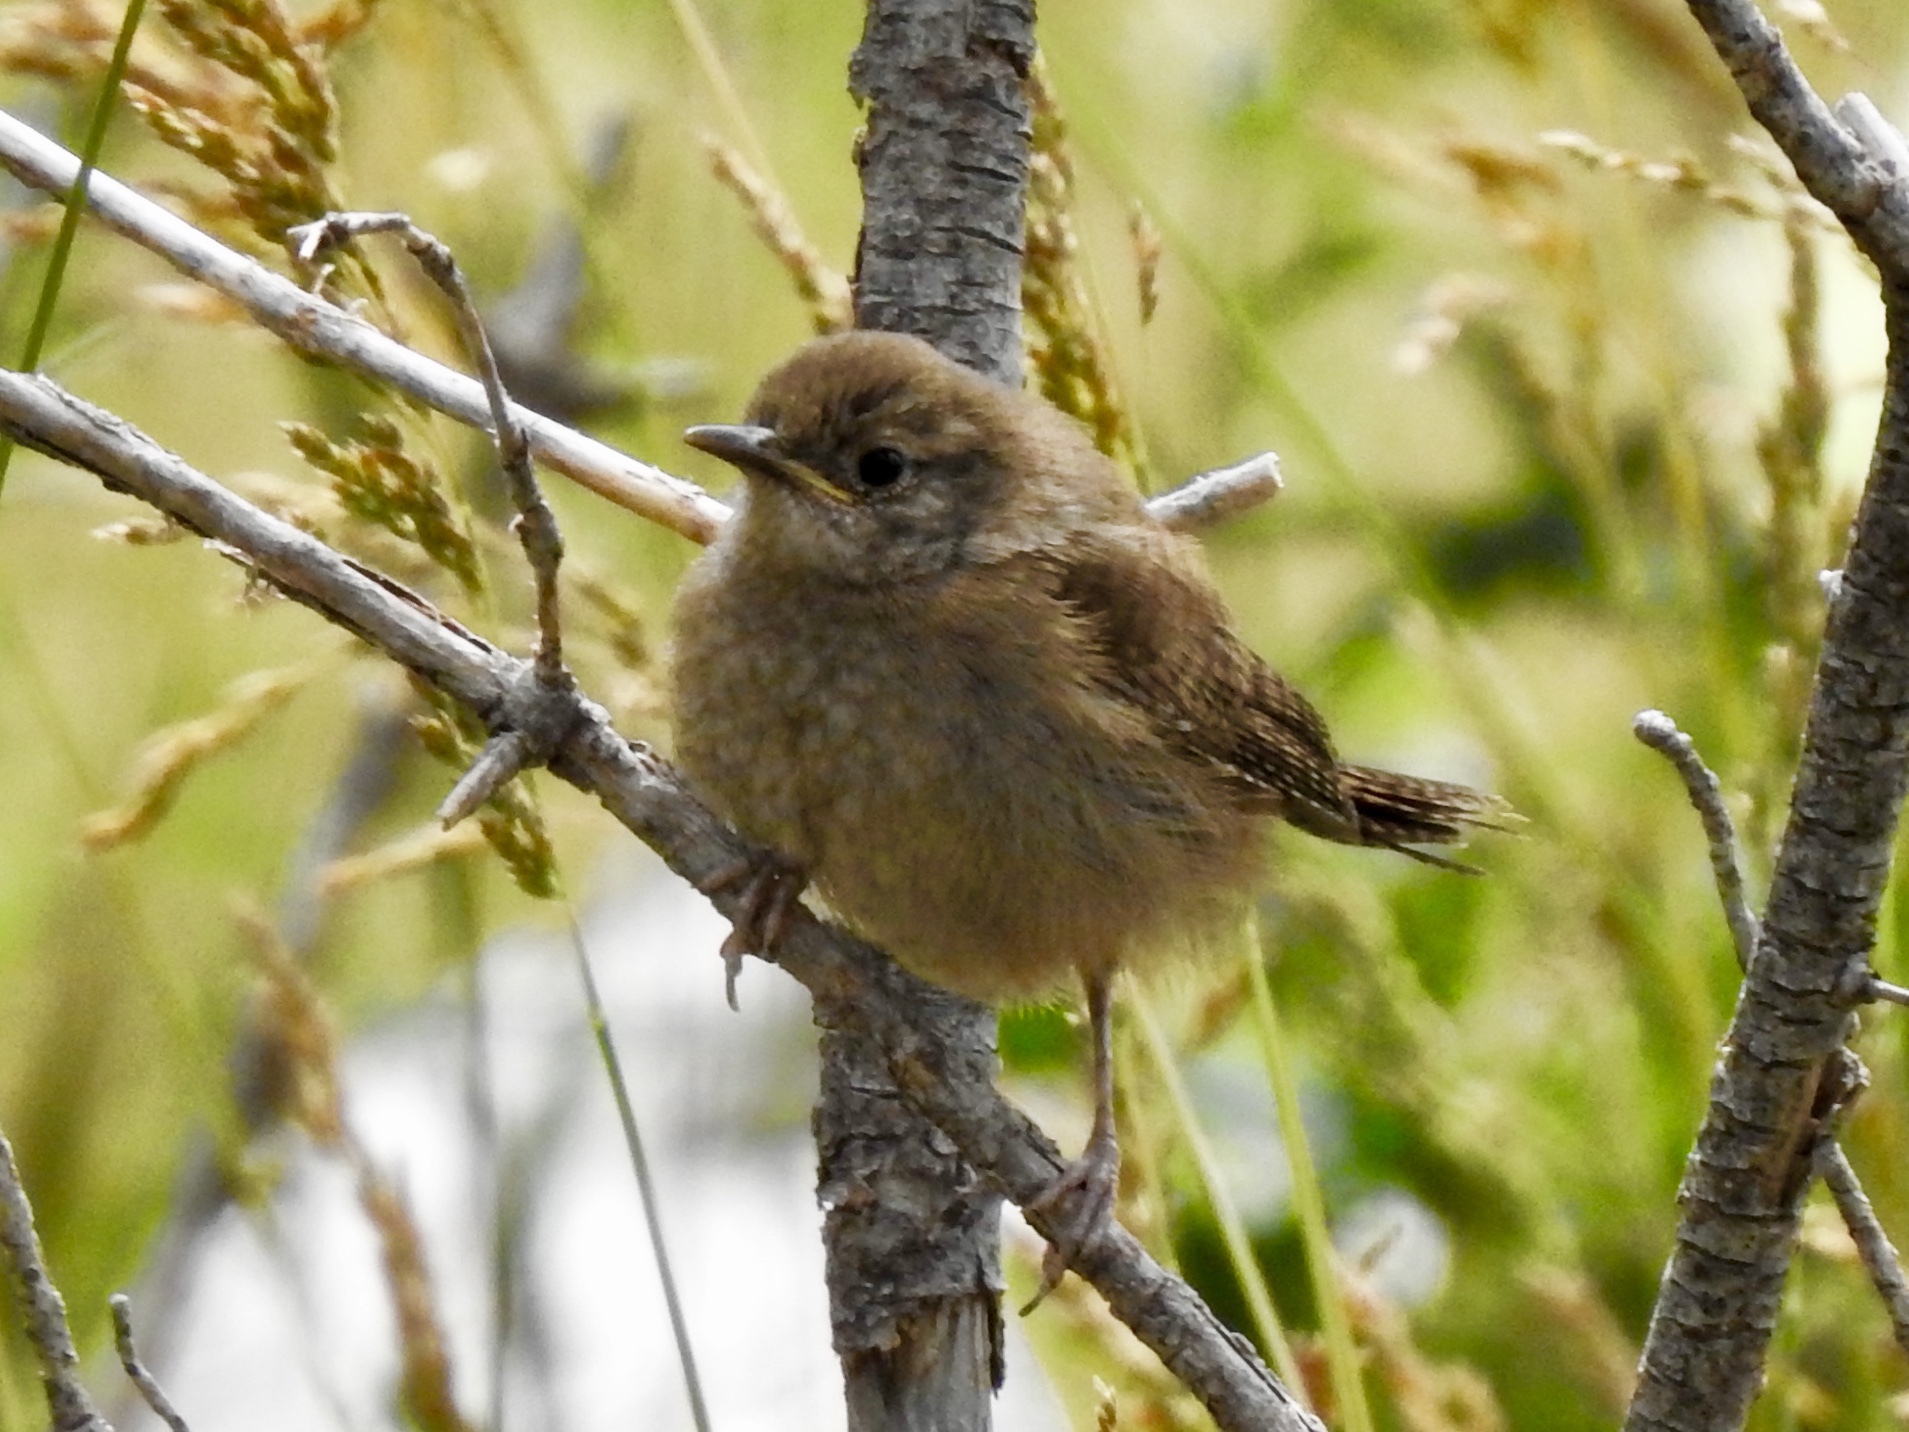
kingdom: Animalia
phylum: Chordata
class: Aves
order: Passeriformes
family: Troglodytidae
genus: Troglodytes
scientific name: Troglodytes aedon
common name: House wren
